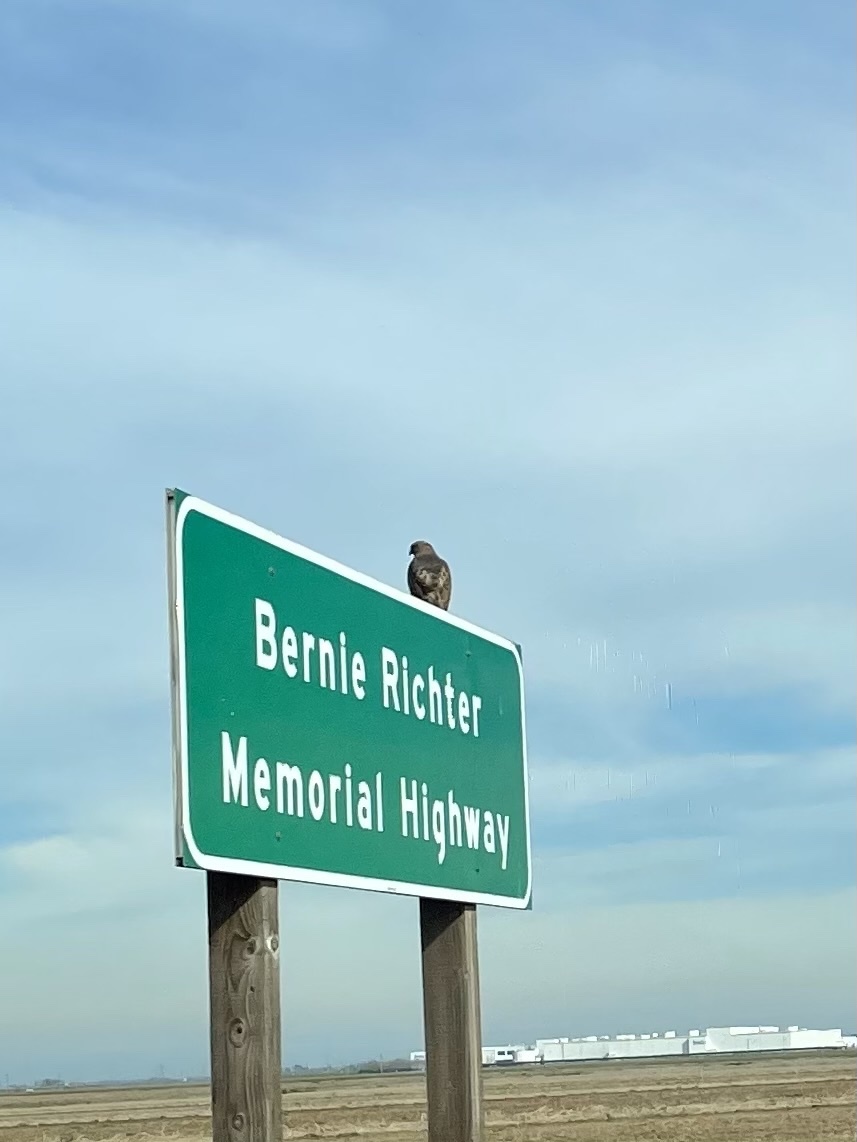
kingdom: Animalia
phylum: Chordata
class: Aves
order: Accipitriformes
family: Accipitridae
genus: Buteo
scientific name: Buteo jamaicensis
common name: Red-tailed hawk
